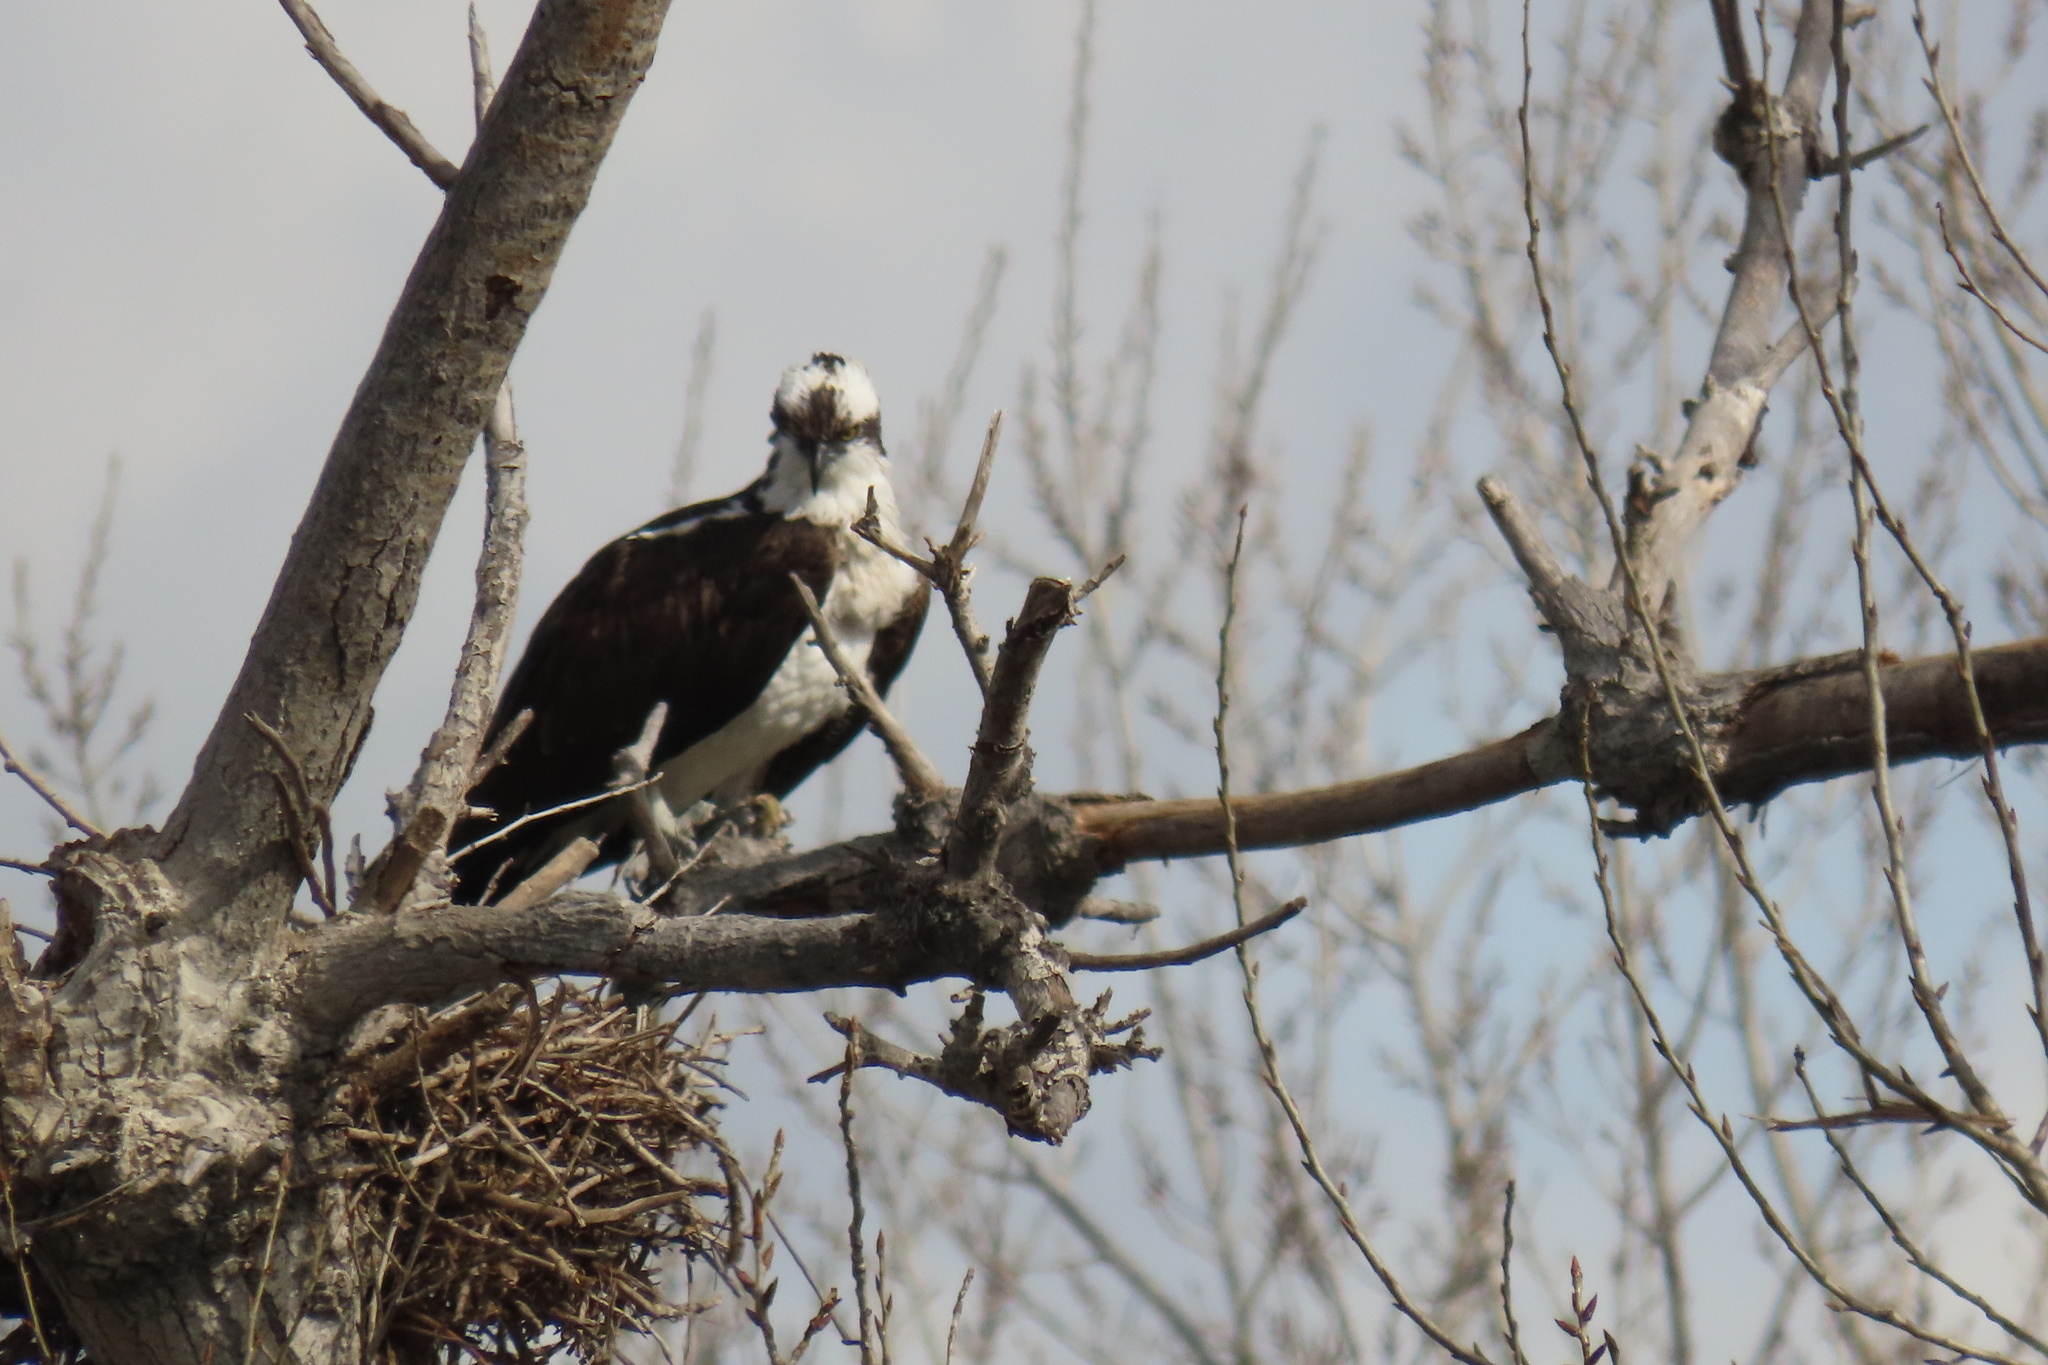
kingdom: Animalia
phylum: Chordata
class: Aves
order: Accipitriformes
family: Pandionidae
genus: Pandion
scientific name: Pandion haliaetus
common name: Osprey
